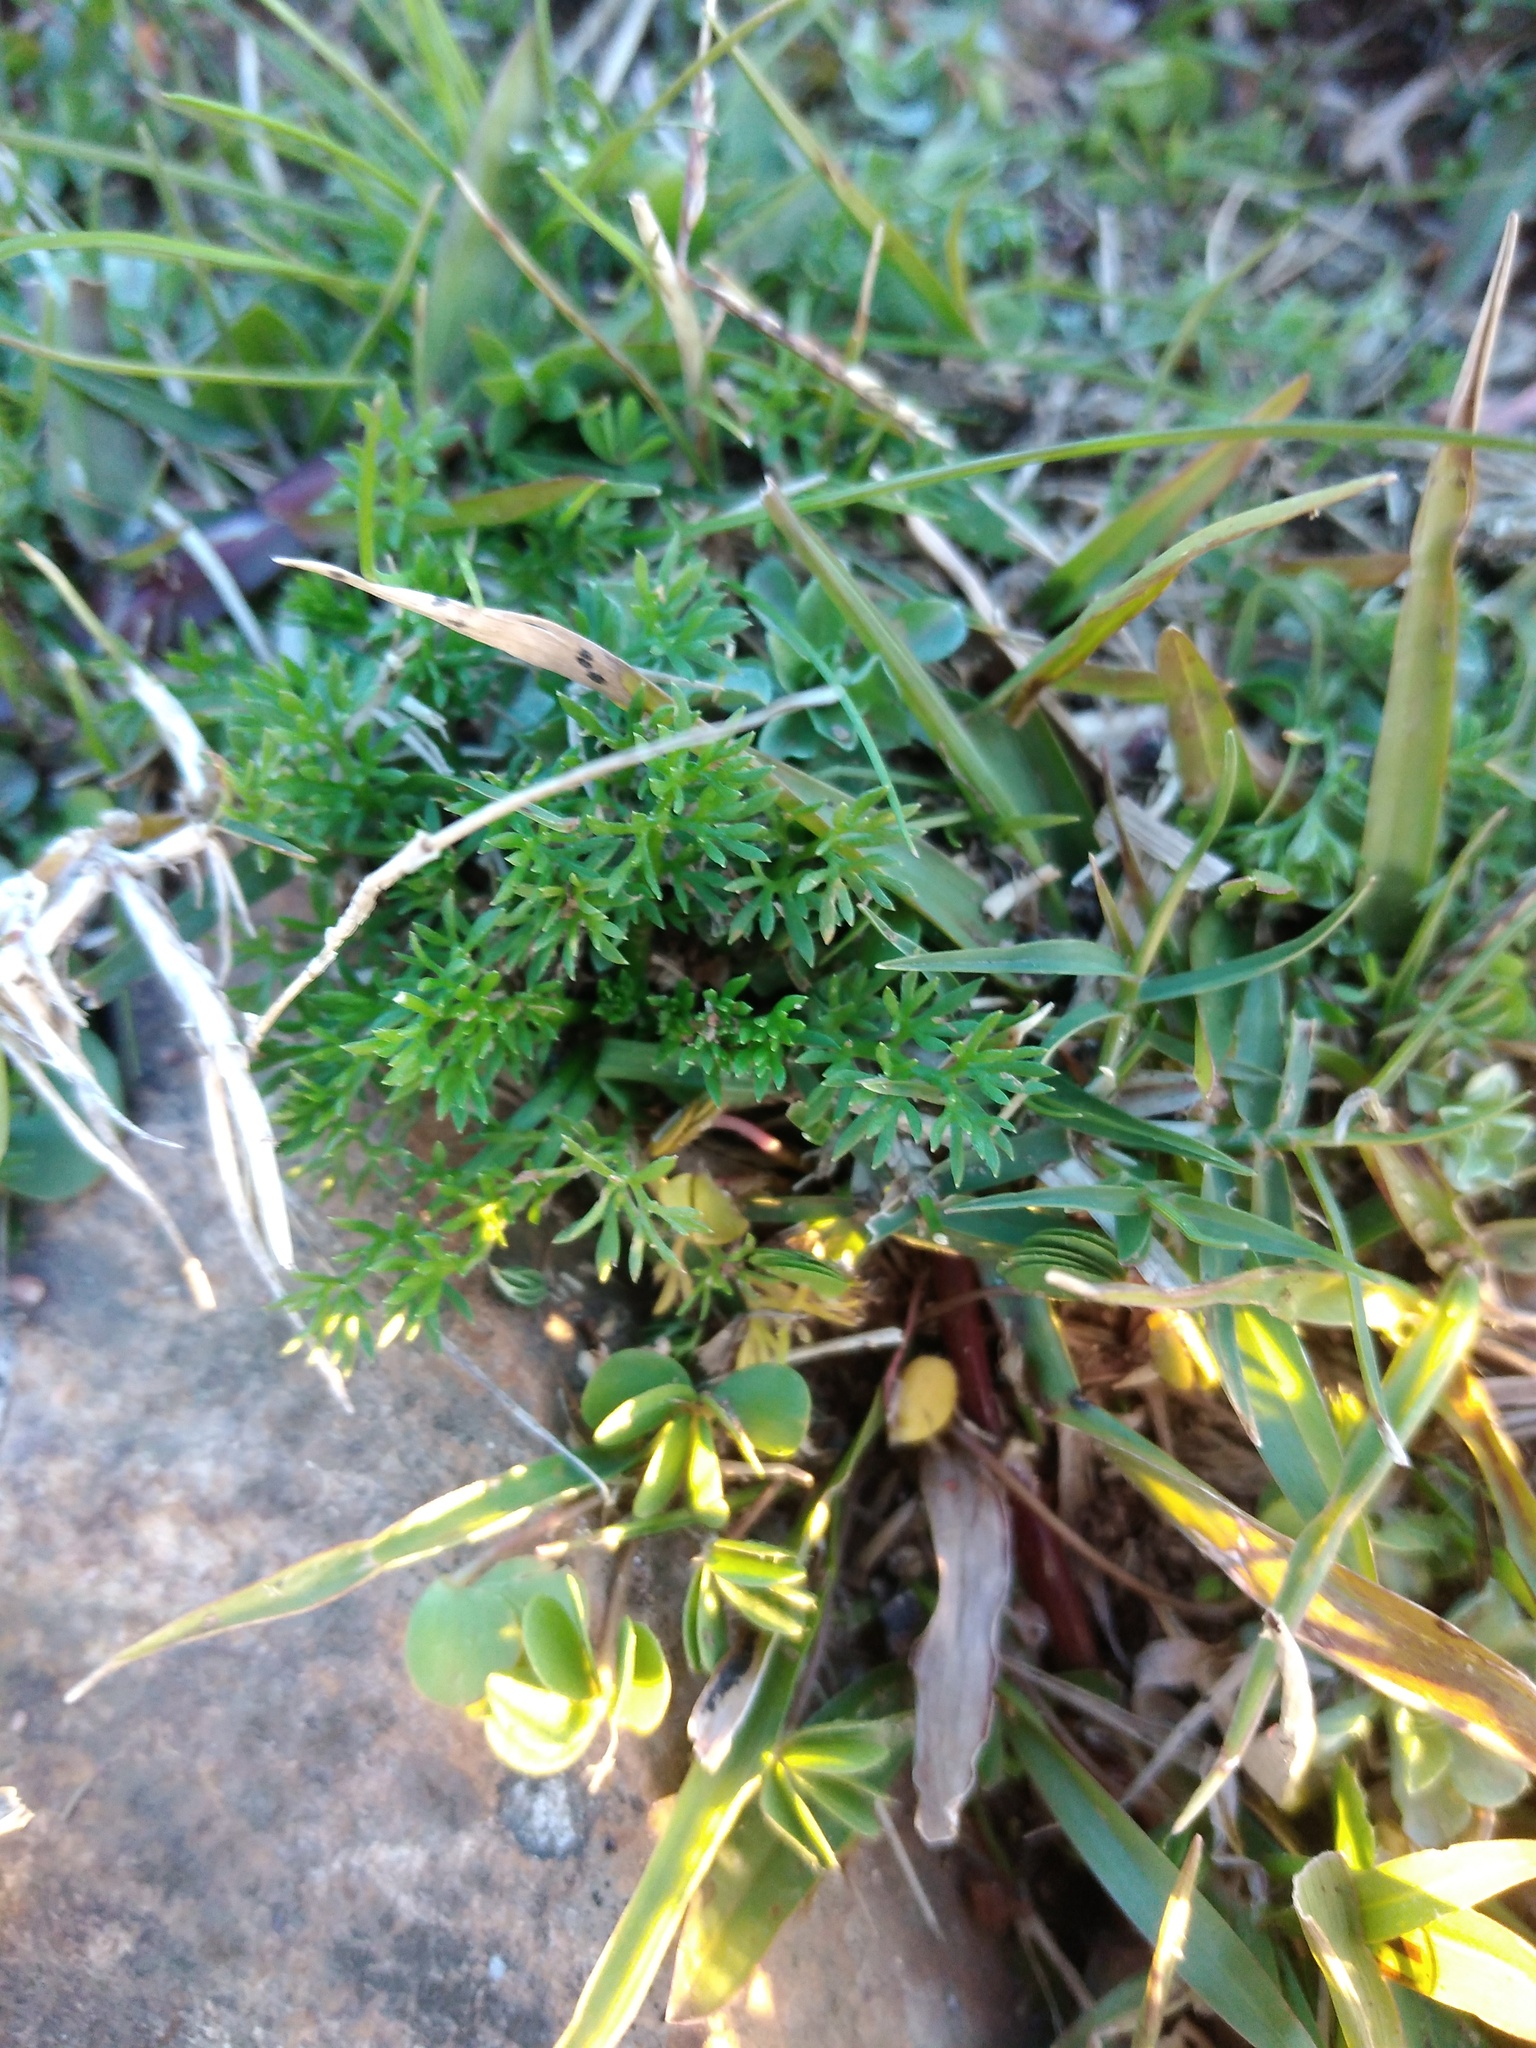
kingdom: Plantae
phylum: Tracheophyta
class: Magnoliopsida
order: Asterales
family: Asteraceae
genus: Soliva
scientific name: Soliva sessilis
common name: Field burrweed
